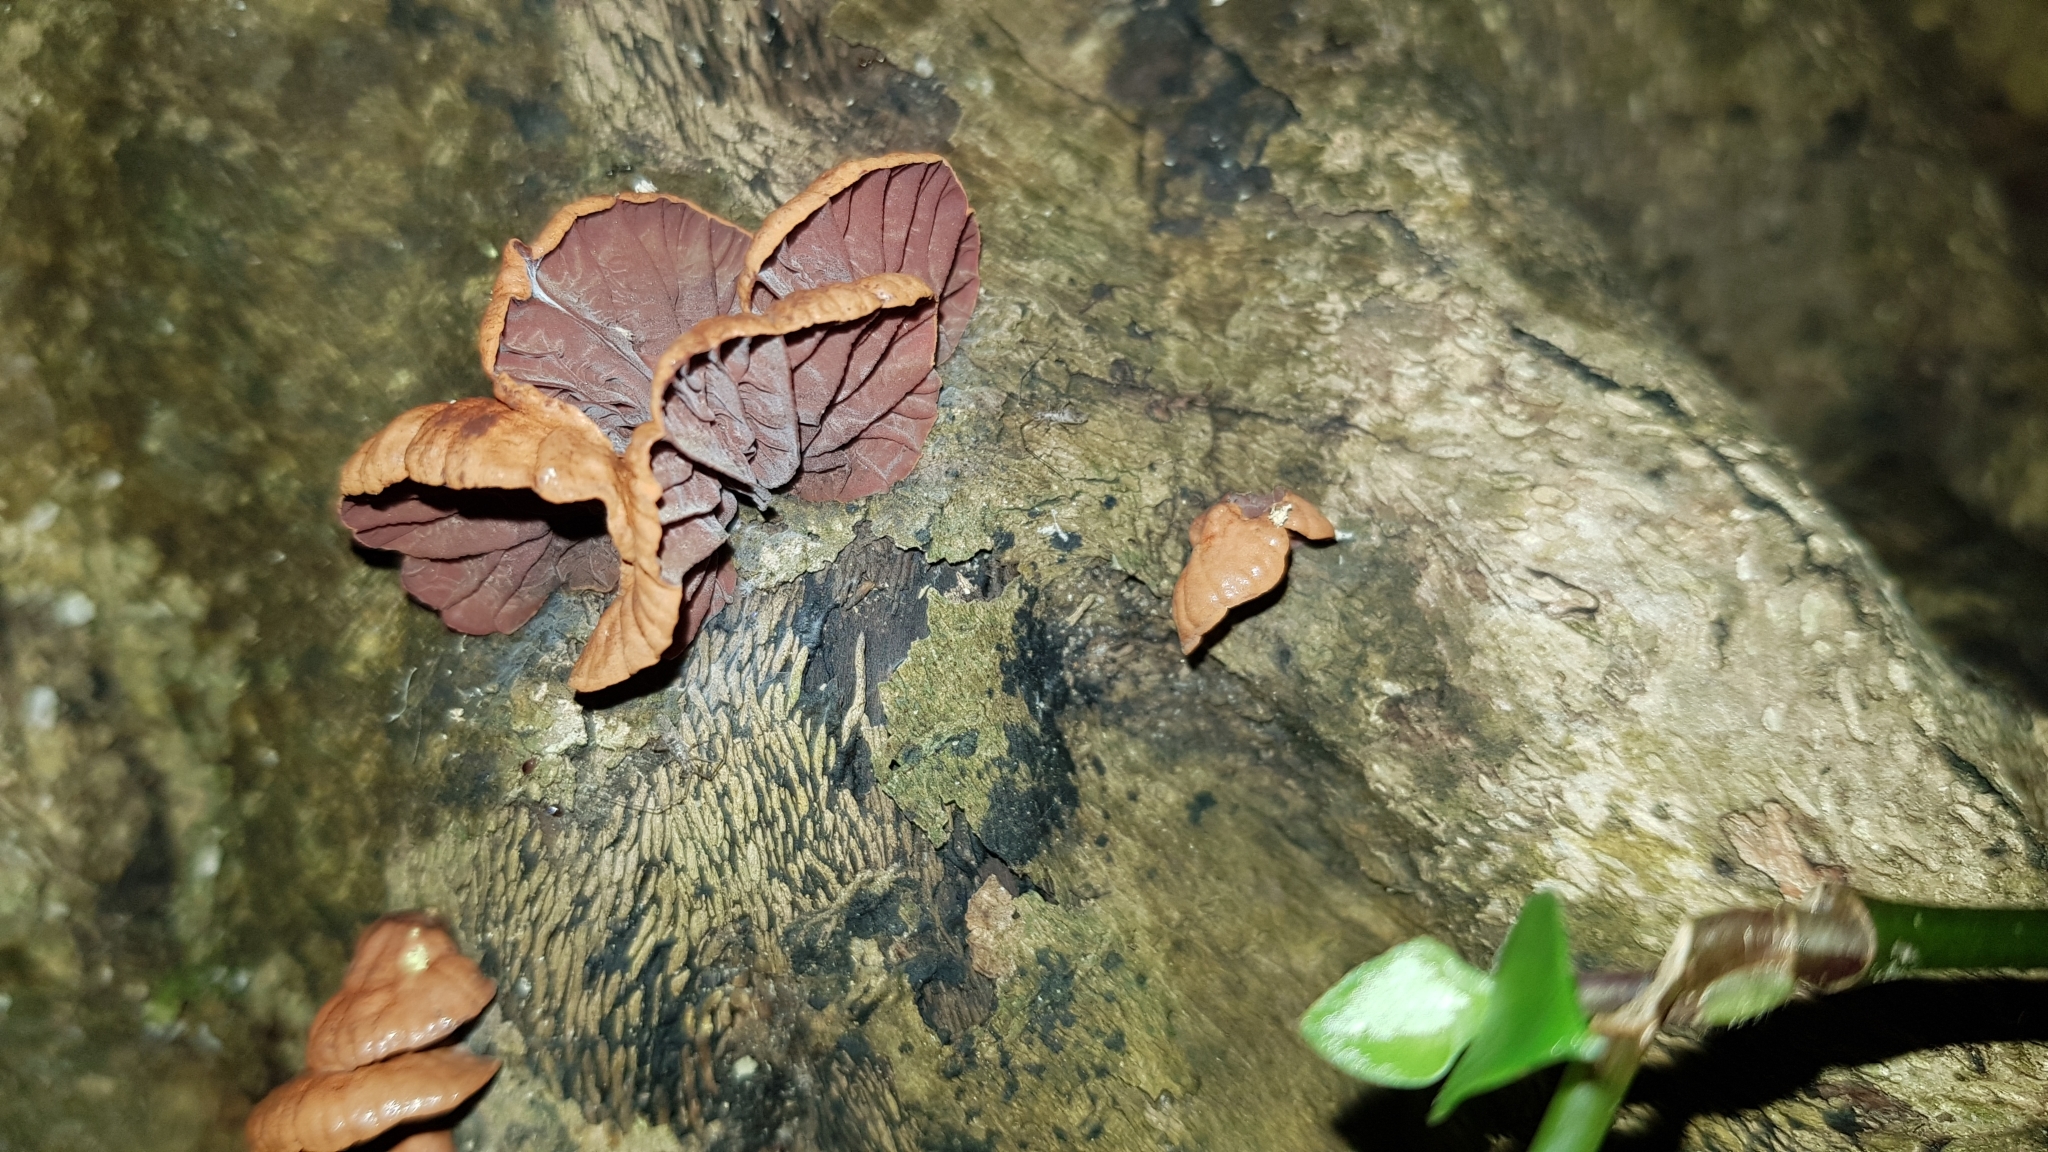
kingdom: Fungi
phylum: Basidiomycota
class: Agaricomycetes
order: Agaricales
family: Omphalotaceae
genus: Anthracophyllum
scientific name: Anthracophyllum archeri
